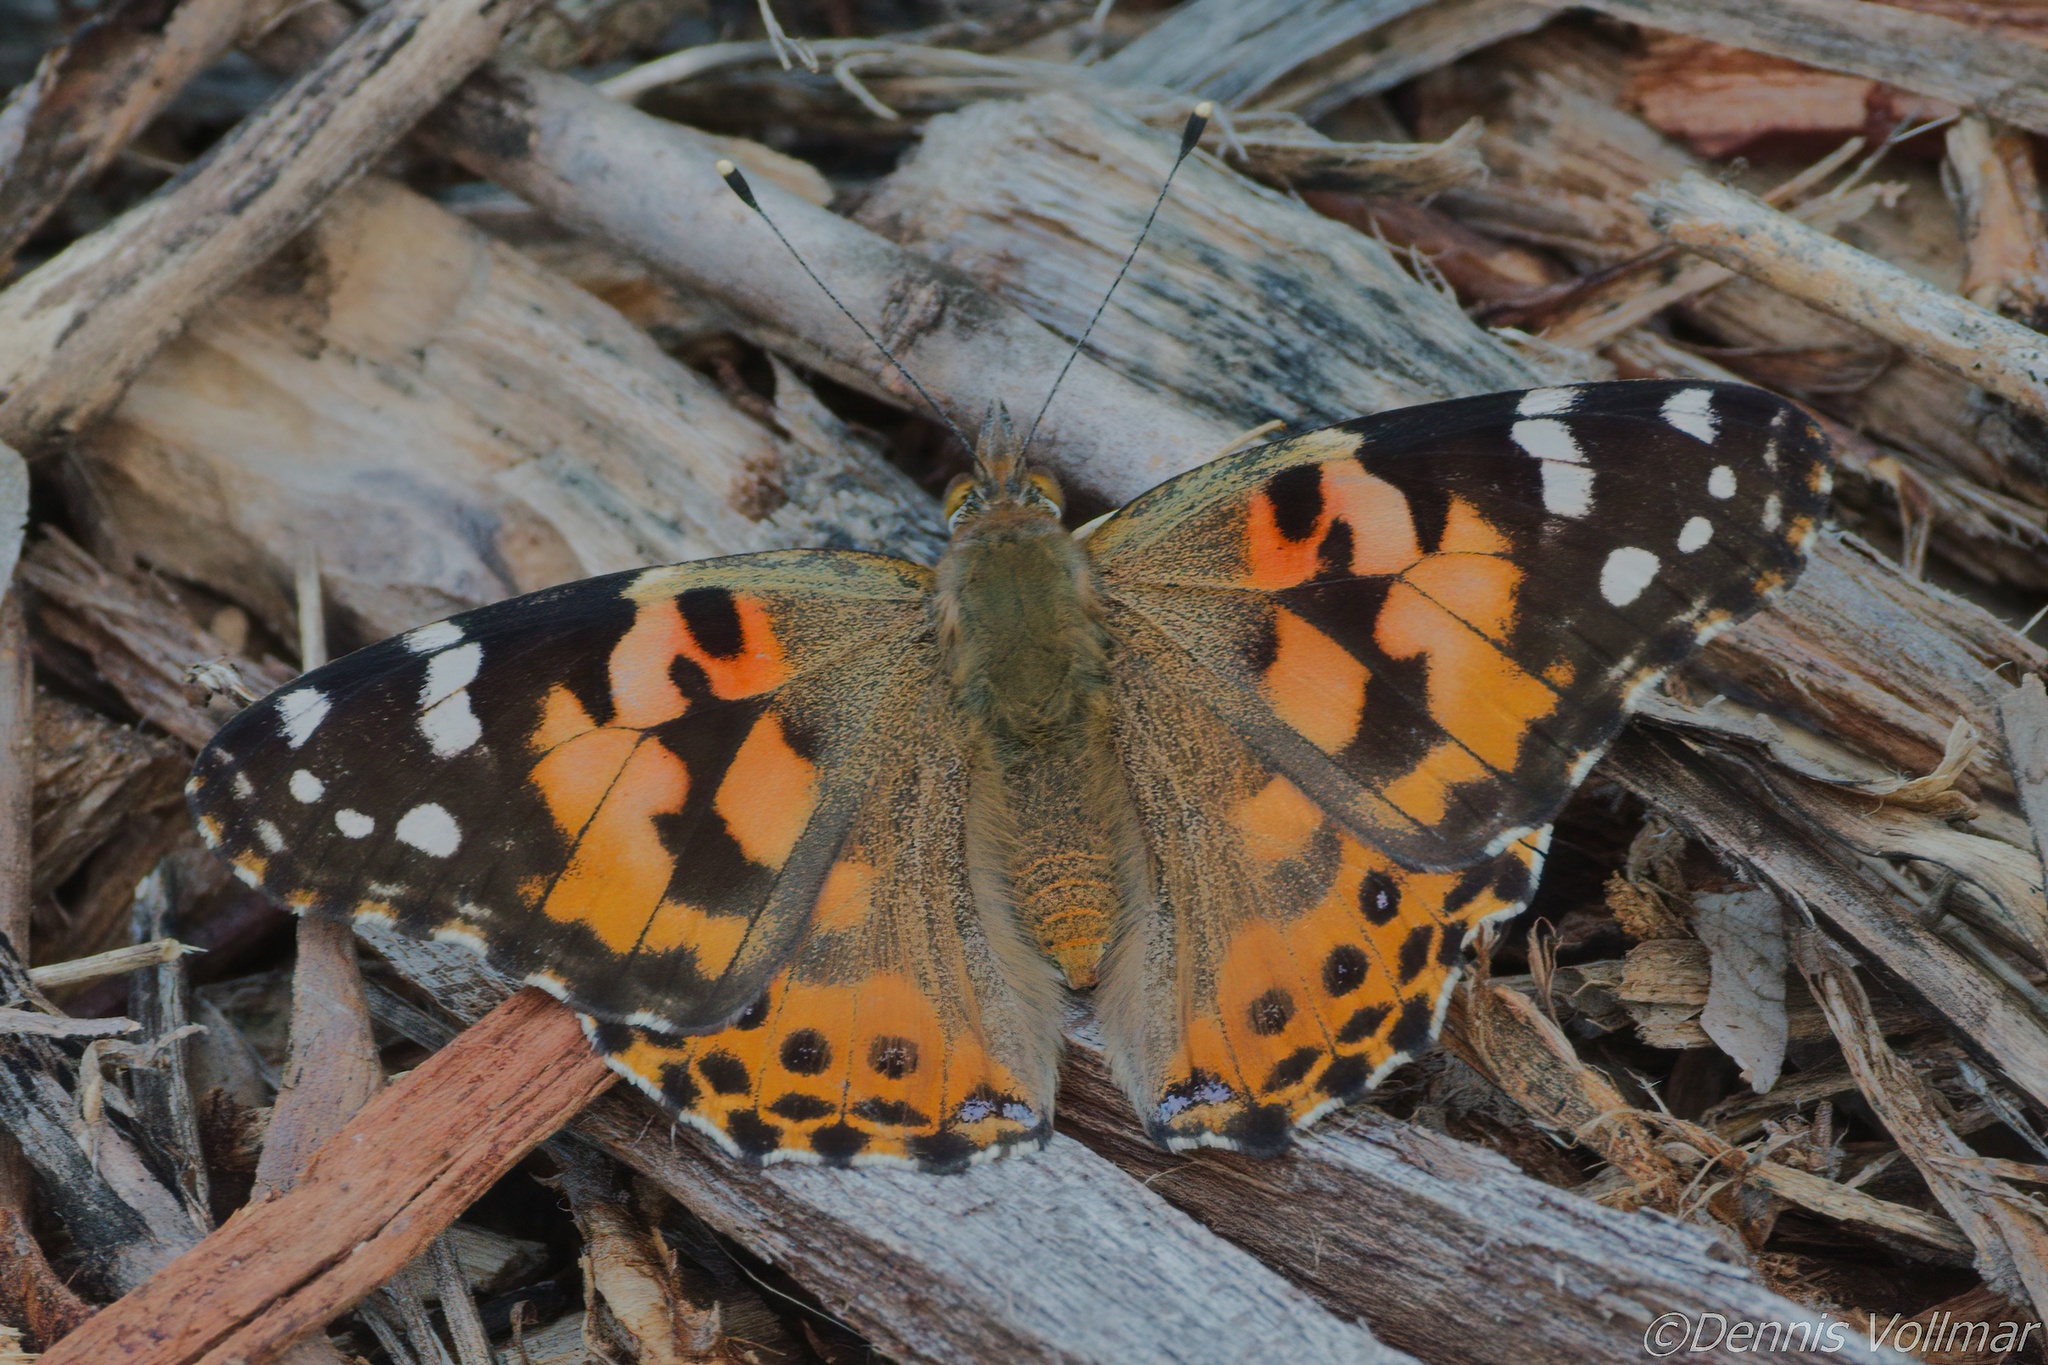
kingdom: Animalia
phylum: Arthropoda
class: Insecta
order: Lepidoptera
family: Nymphalidae
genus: Vanessa
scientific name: Vanessa cardui
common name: Painted lady
